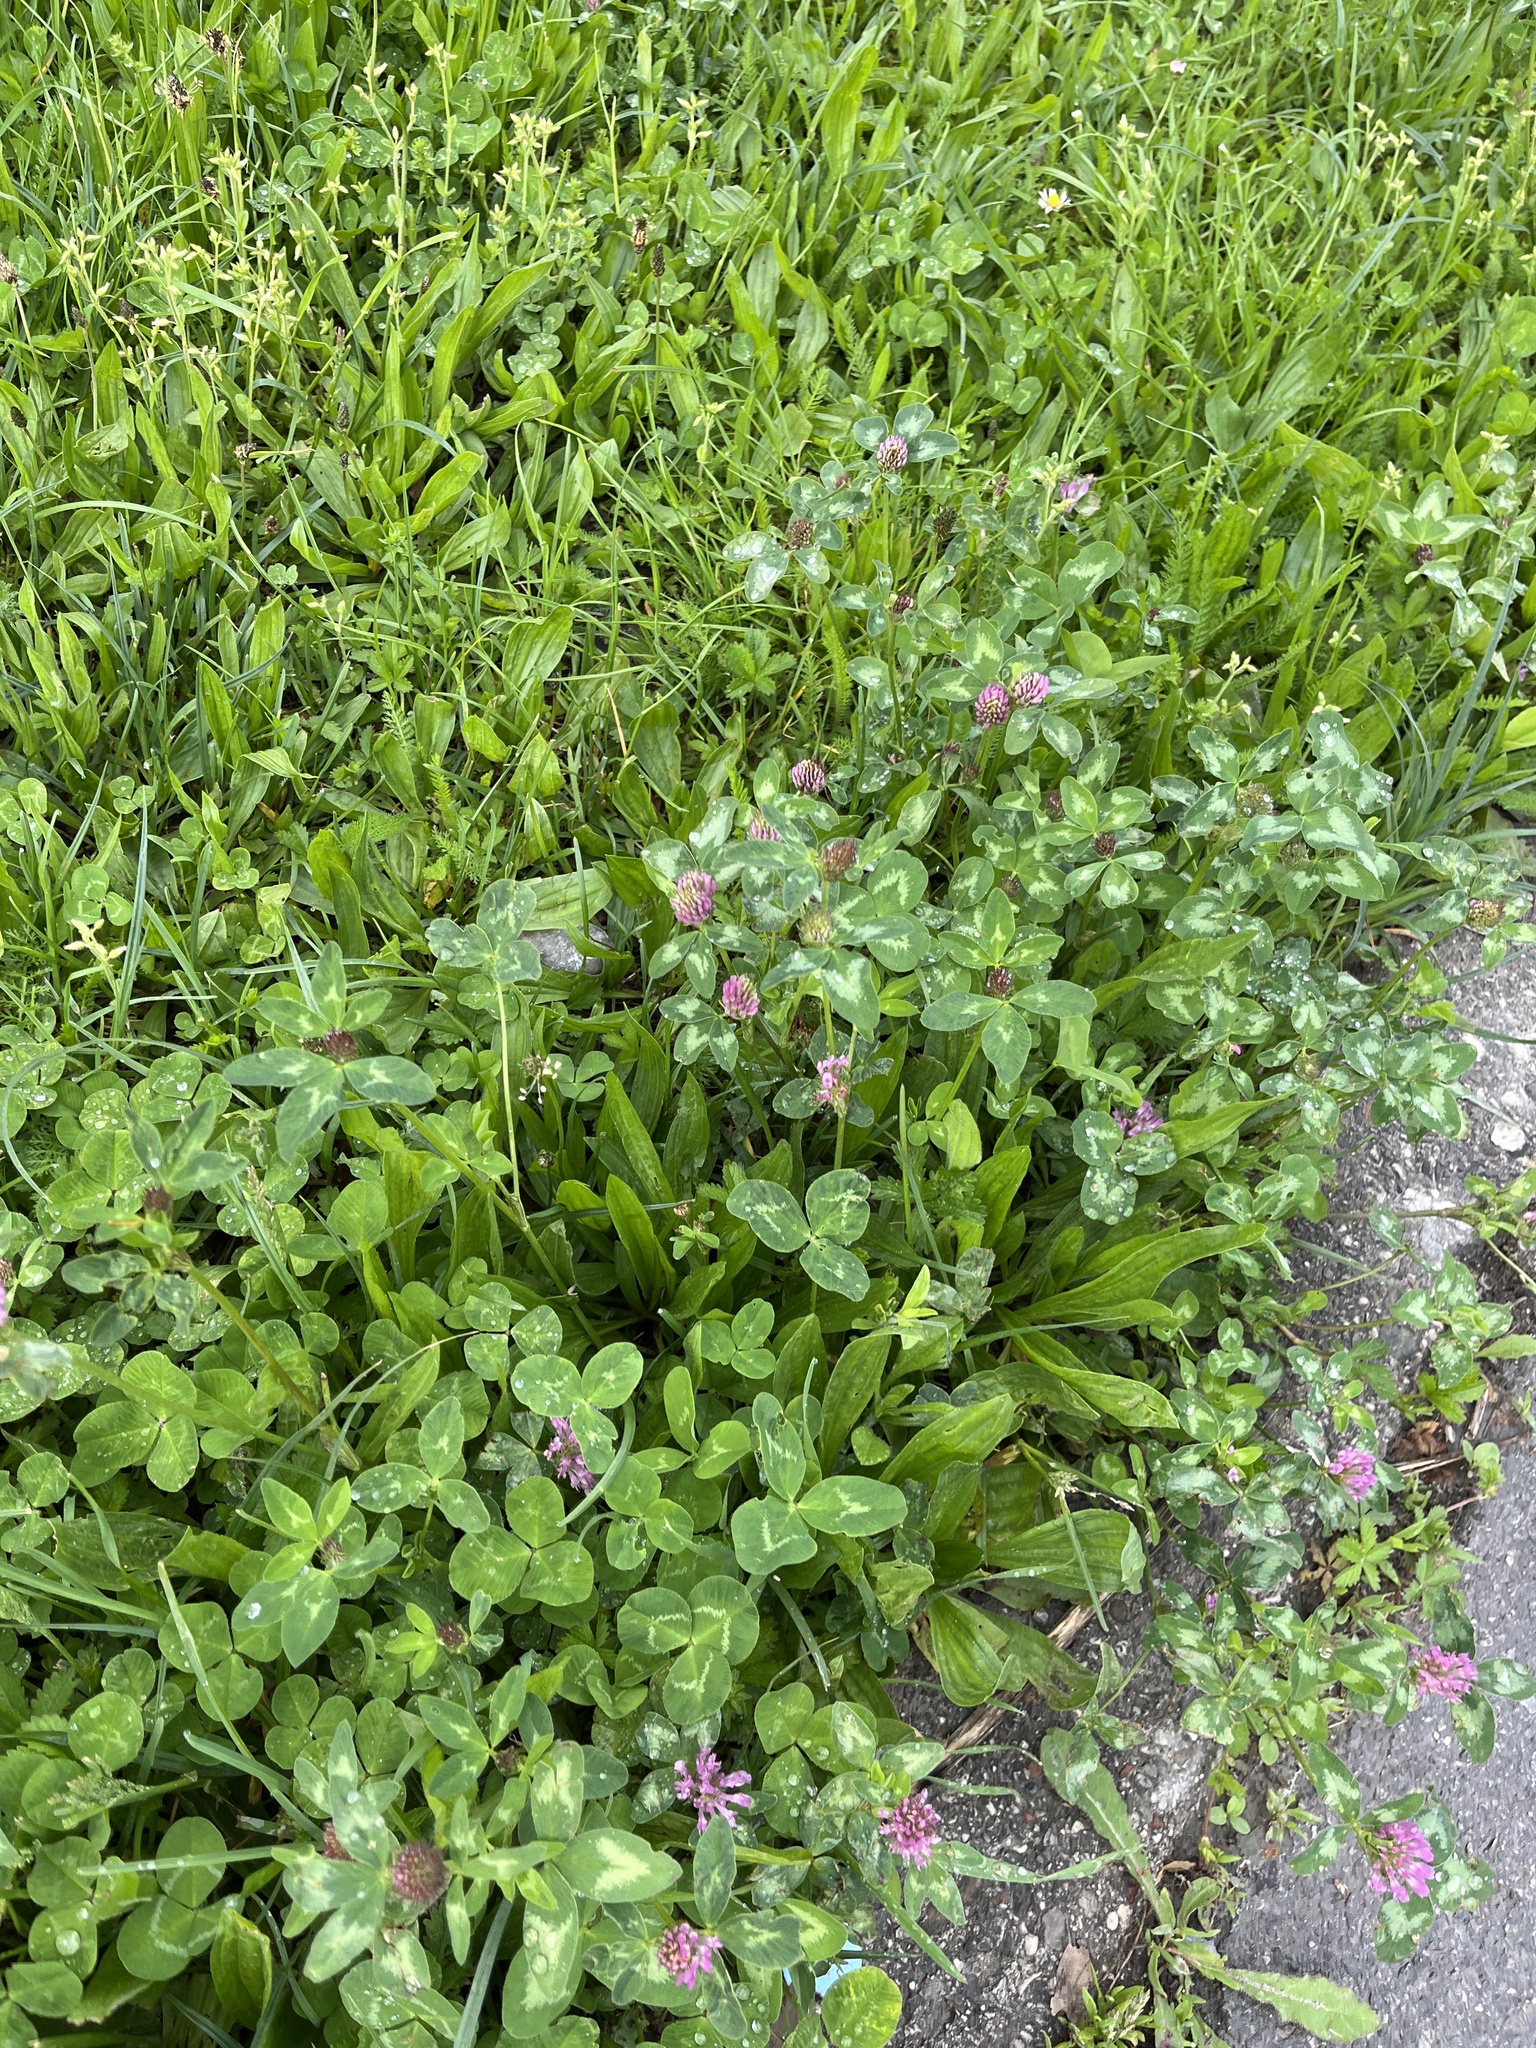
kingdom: Plantae
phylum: Tracheophyta
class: Magnoliopsida
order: Fabales
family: Fabaceae
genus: Trifolium
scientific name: Trifolium pratense
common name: Red clover
